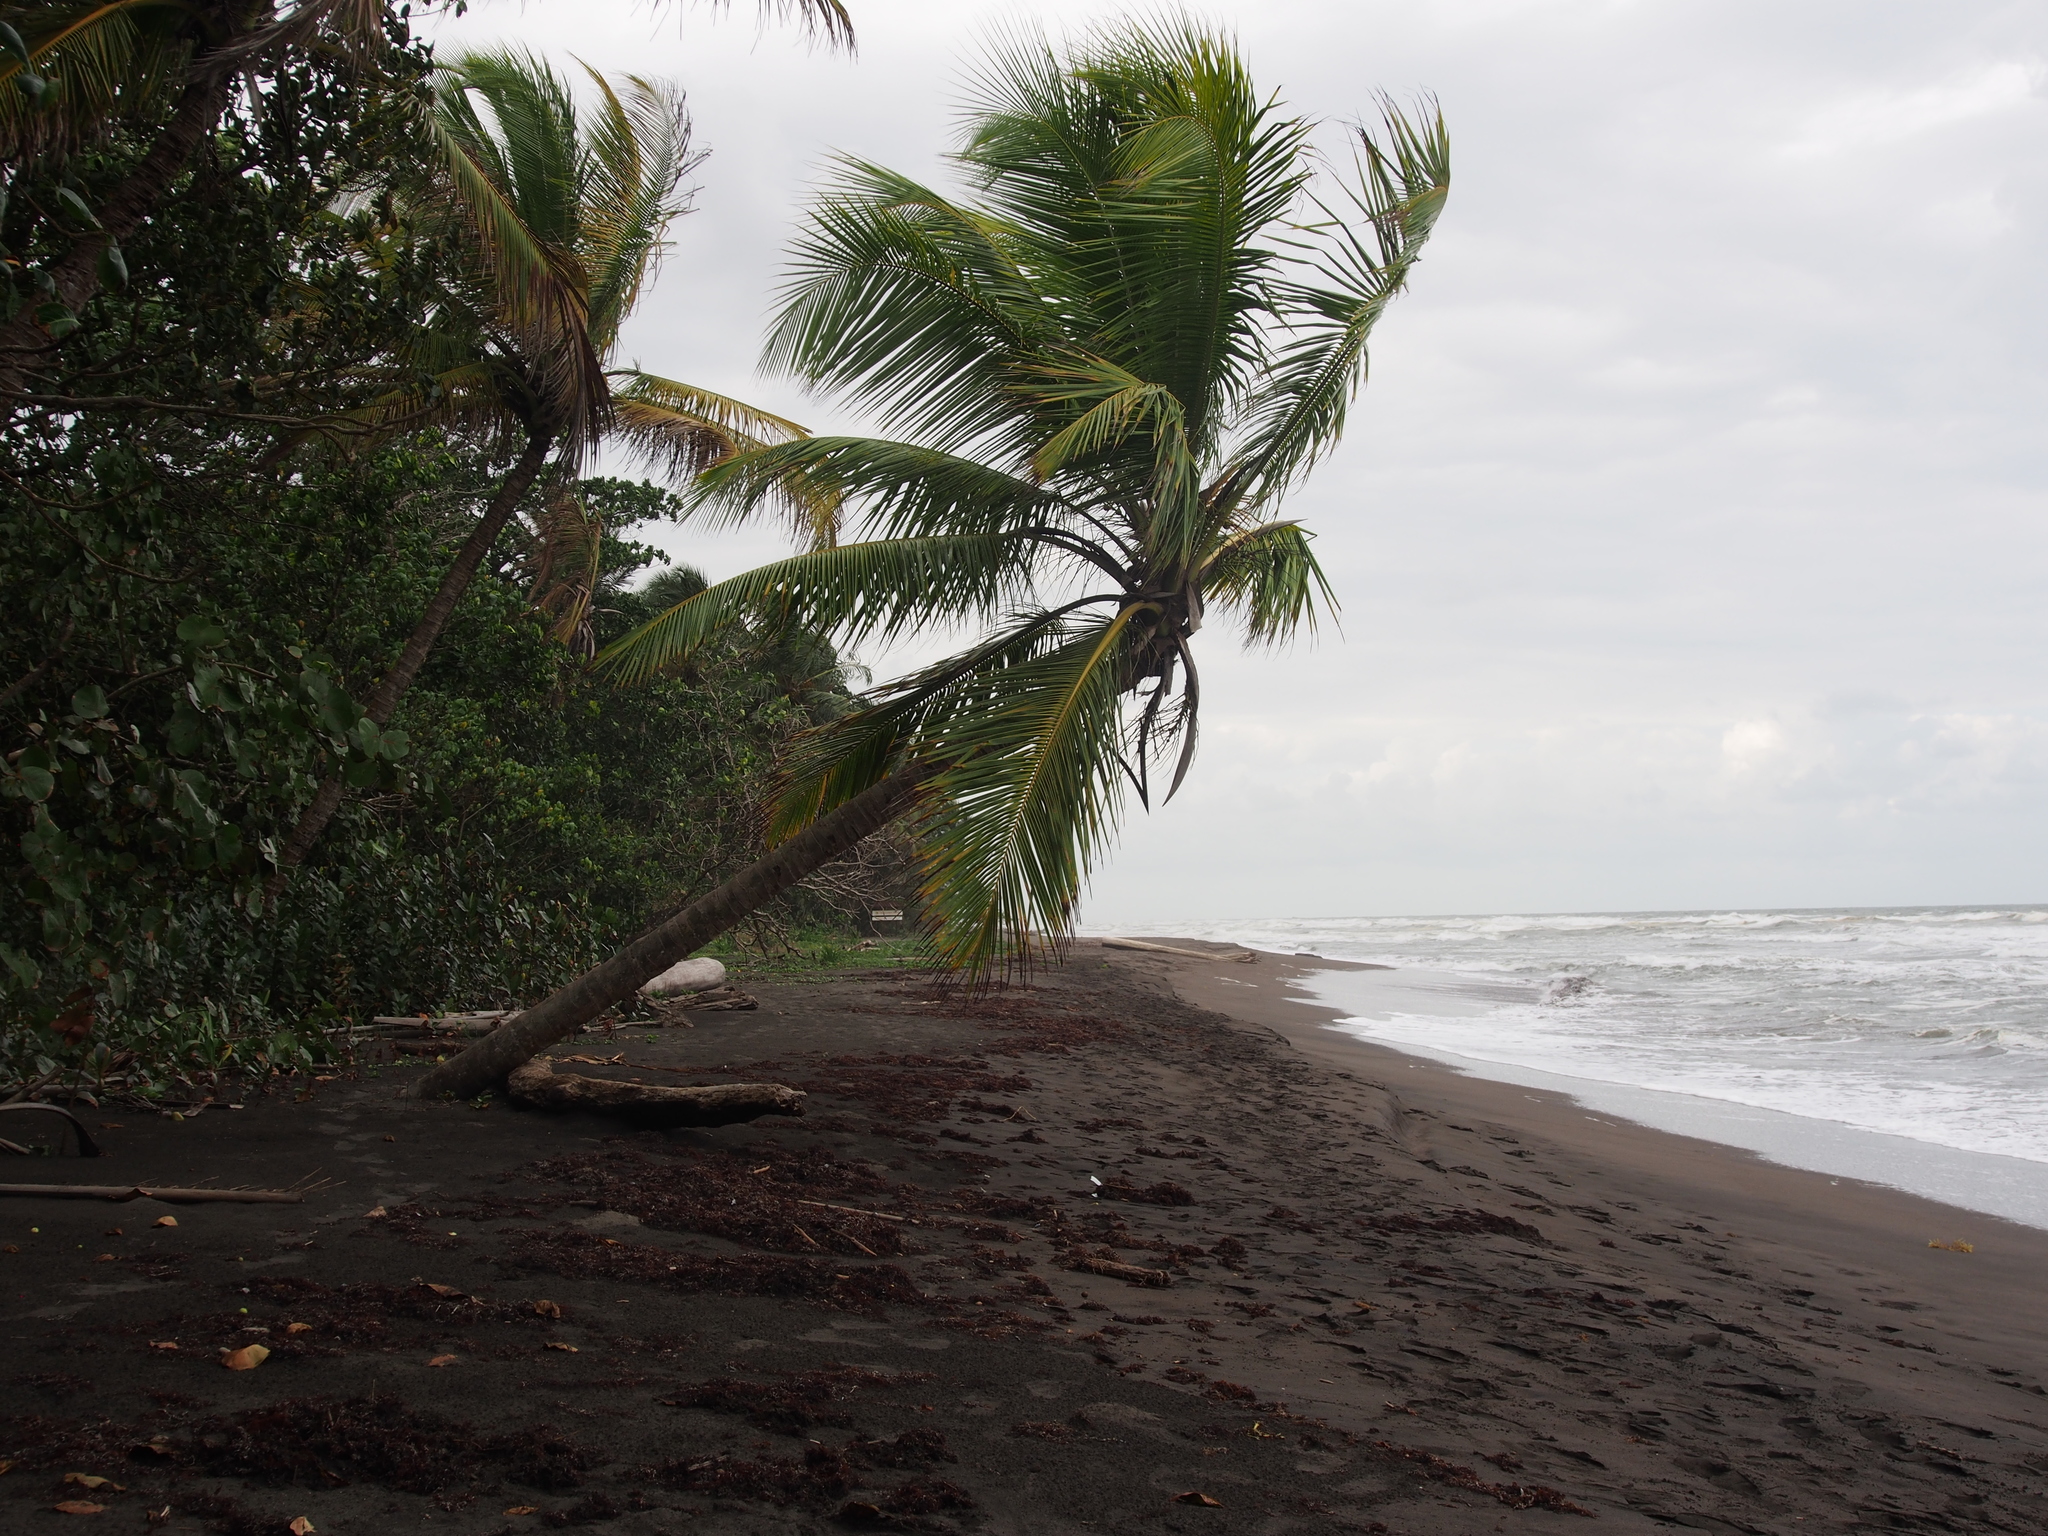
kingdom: Plantae
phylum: Tracheophyta
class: Liliopsida
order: Arecales
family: Arecaceae
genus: Cocos
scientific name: Cocos nucifera
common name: Coconut palm
